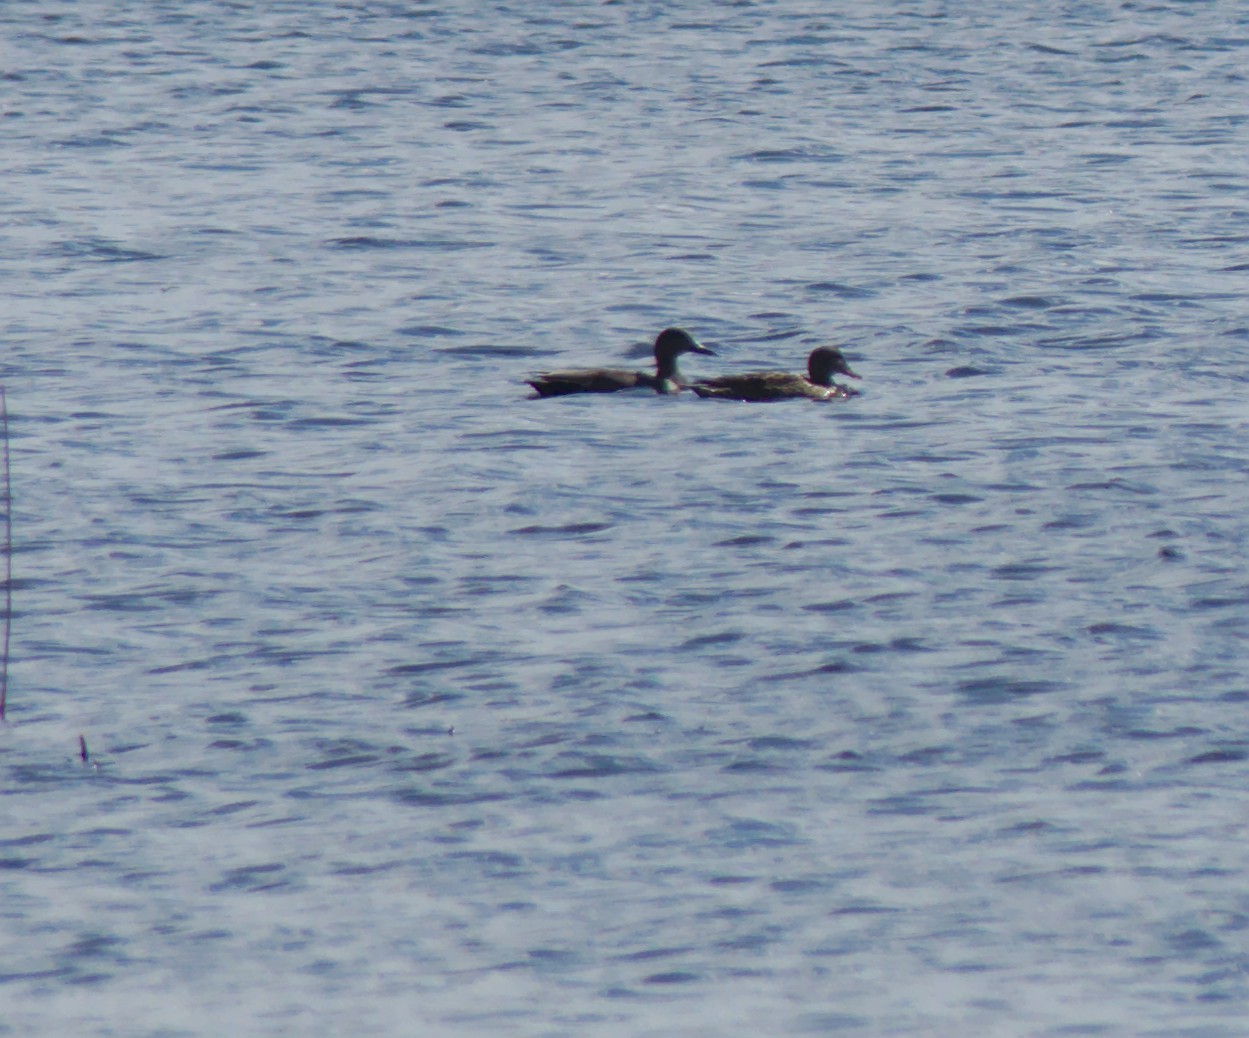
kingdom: Animalia
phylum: Chordata
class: Aves
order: Anseriformes
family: Anatidae
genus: Mareca
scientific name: Mareca strepera
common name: Gadwall
